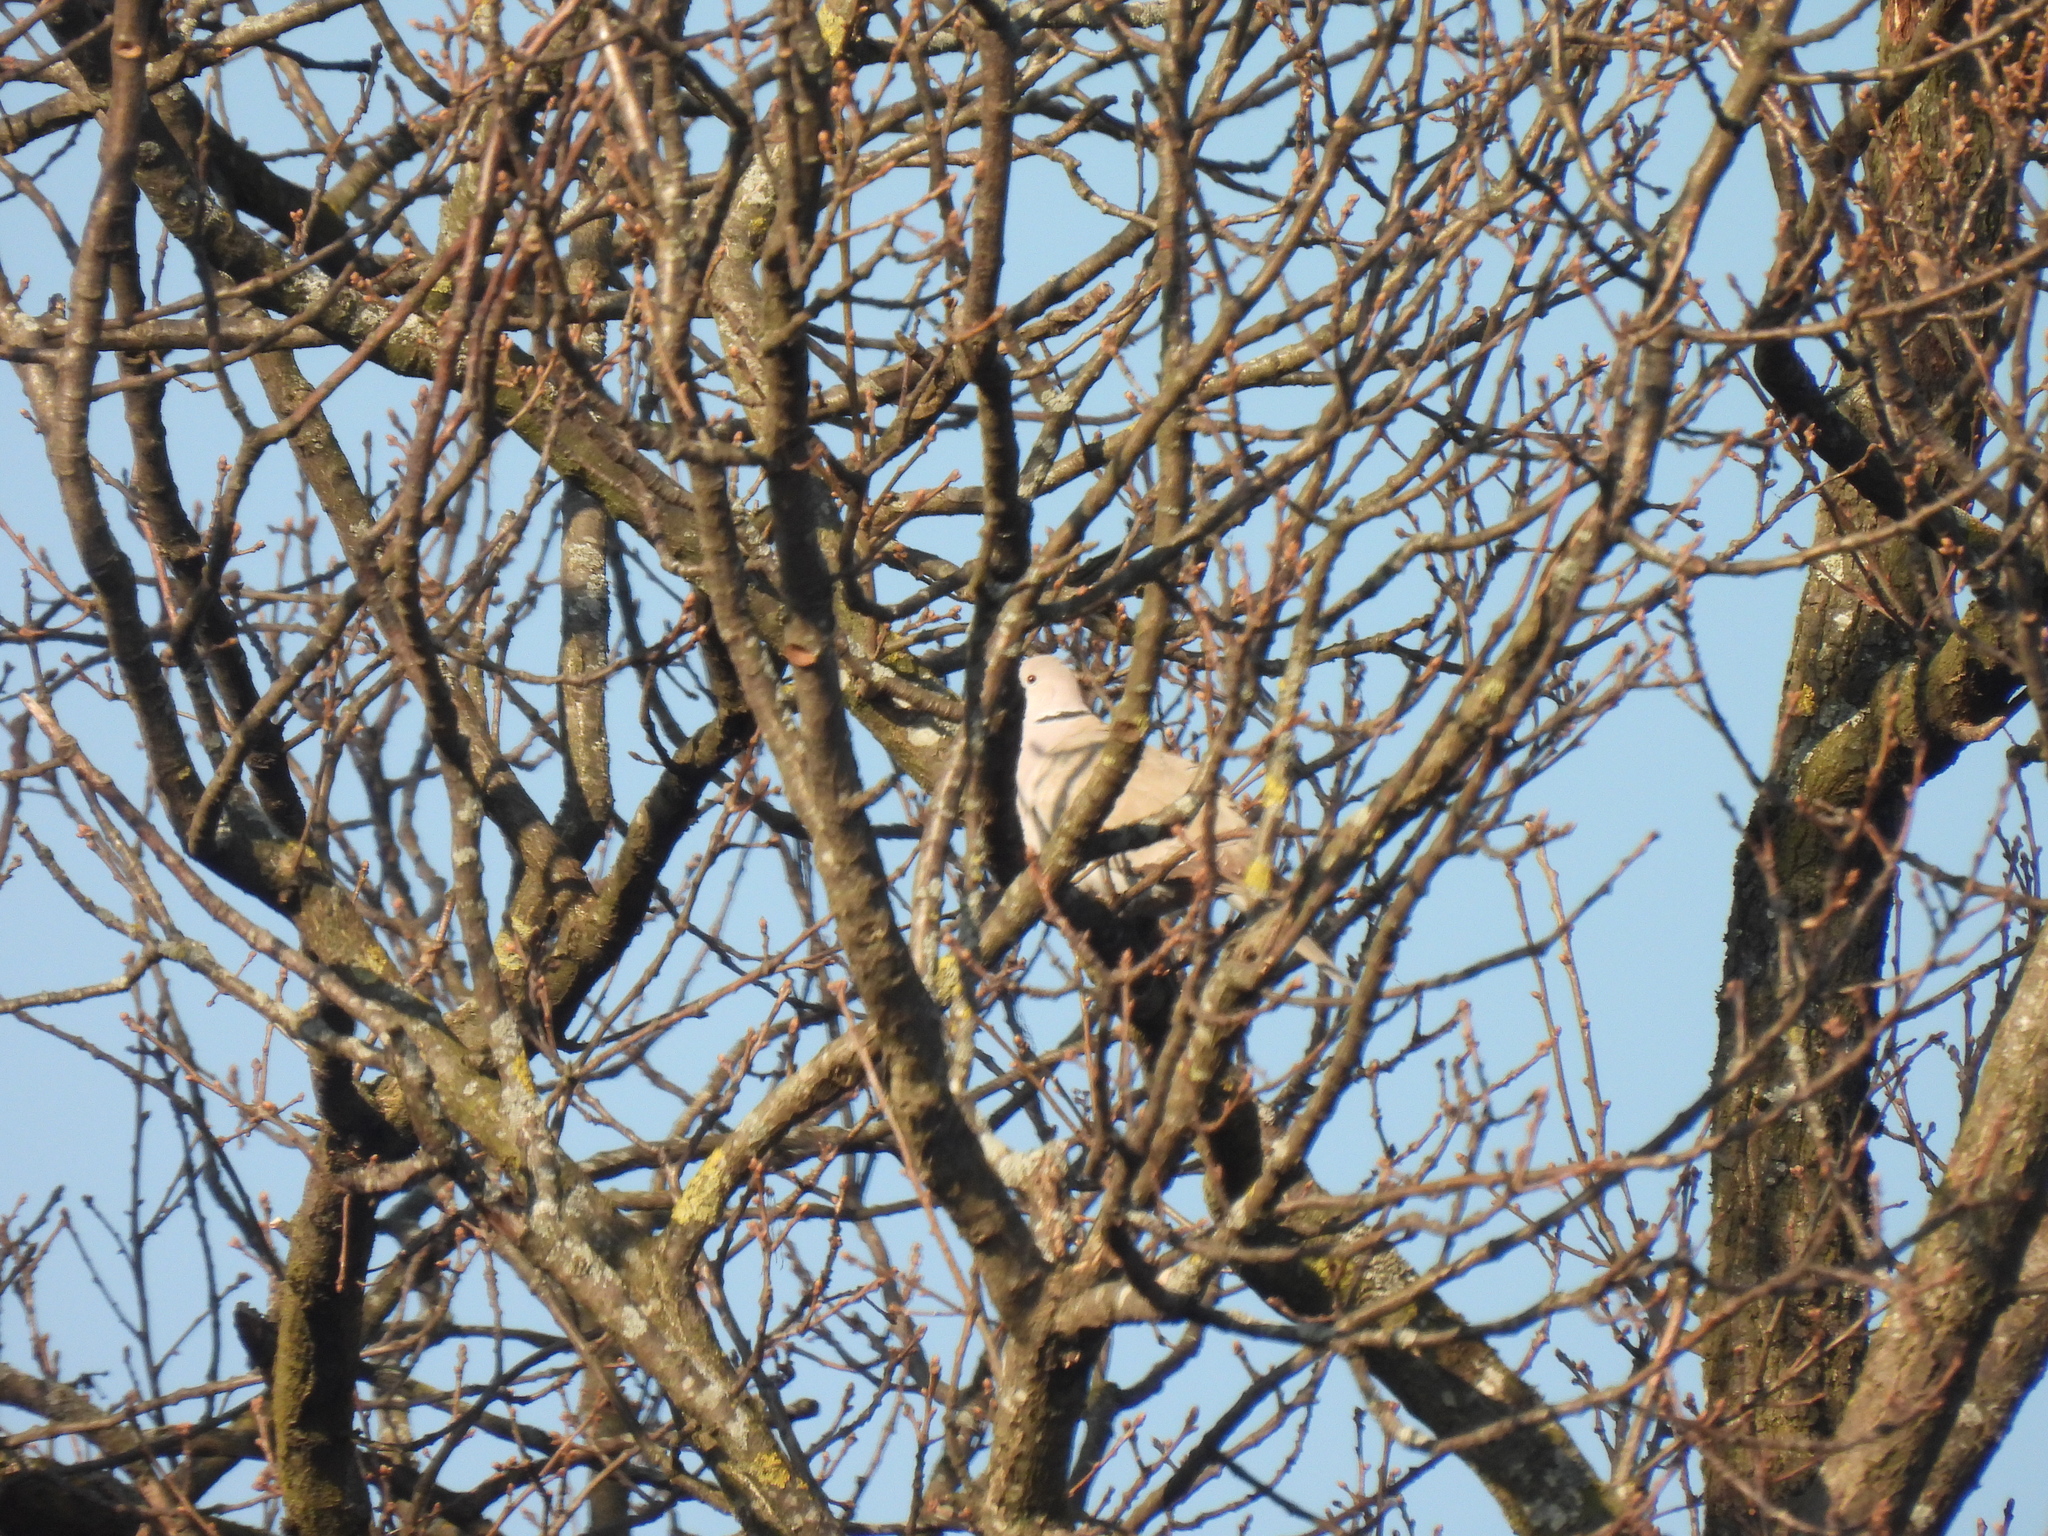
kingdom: Animalia
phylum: Chordata
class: Aves
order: Columbiformes
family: Columbidae
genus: Streptopelia
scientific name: Streptopelia decaocto
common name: Eurasian collared dove
